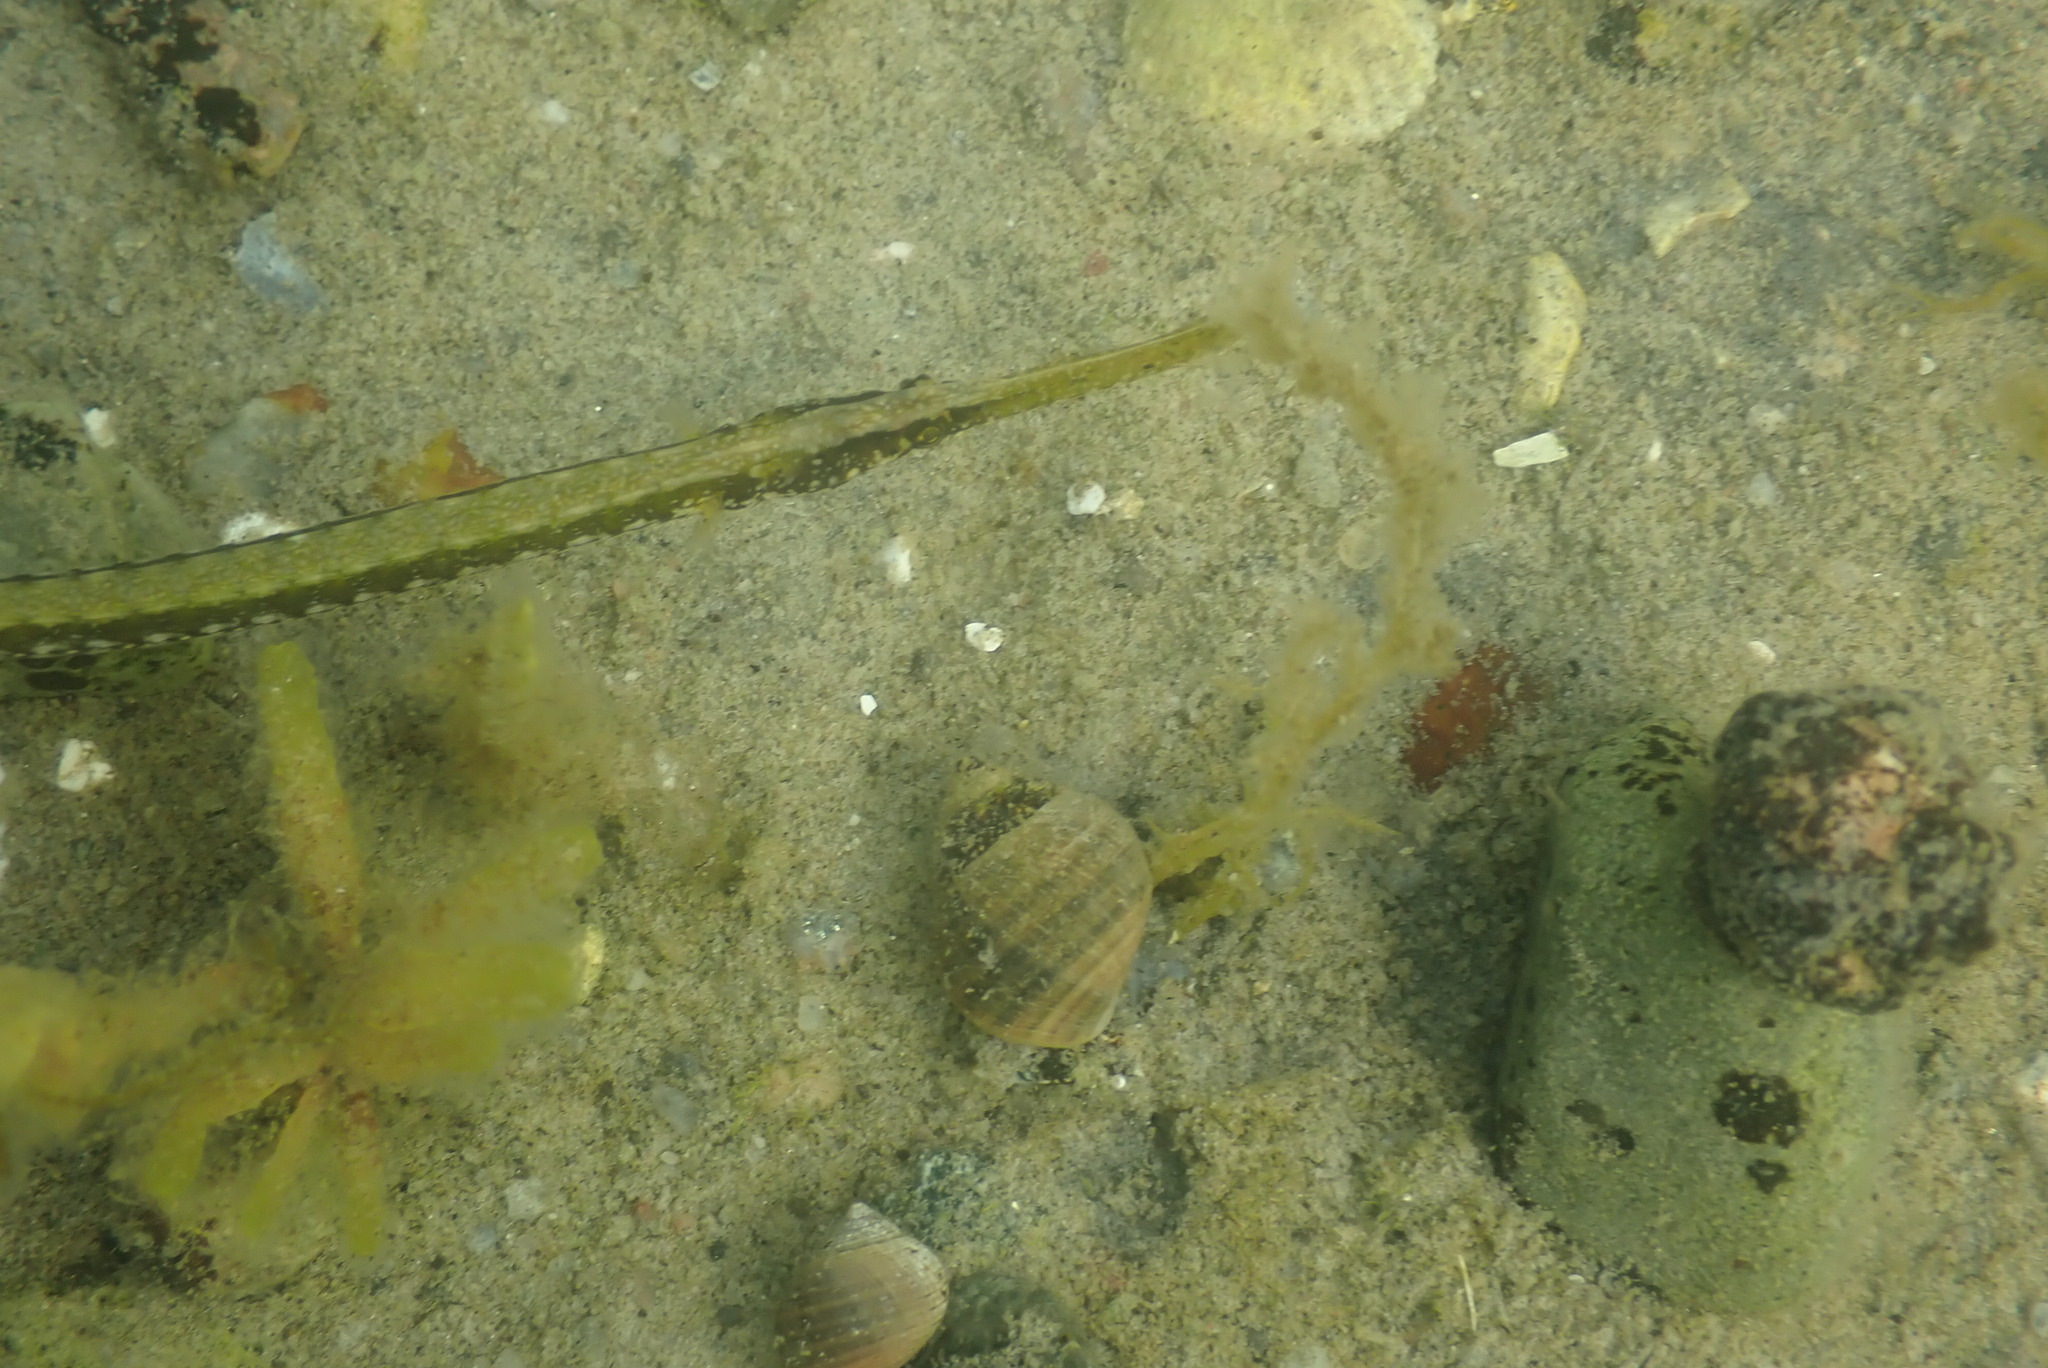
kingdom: Animalia
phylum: Chordata
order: Syngnathiformes
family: Syngnathidae
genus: Syngnathus
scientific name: Syngnathus typhle
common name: Deep-snouted pipefish
